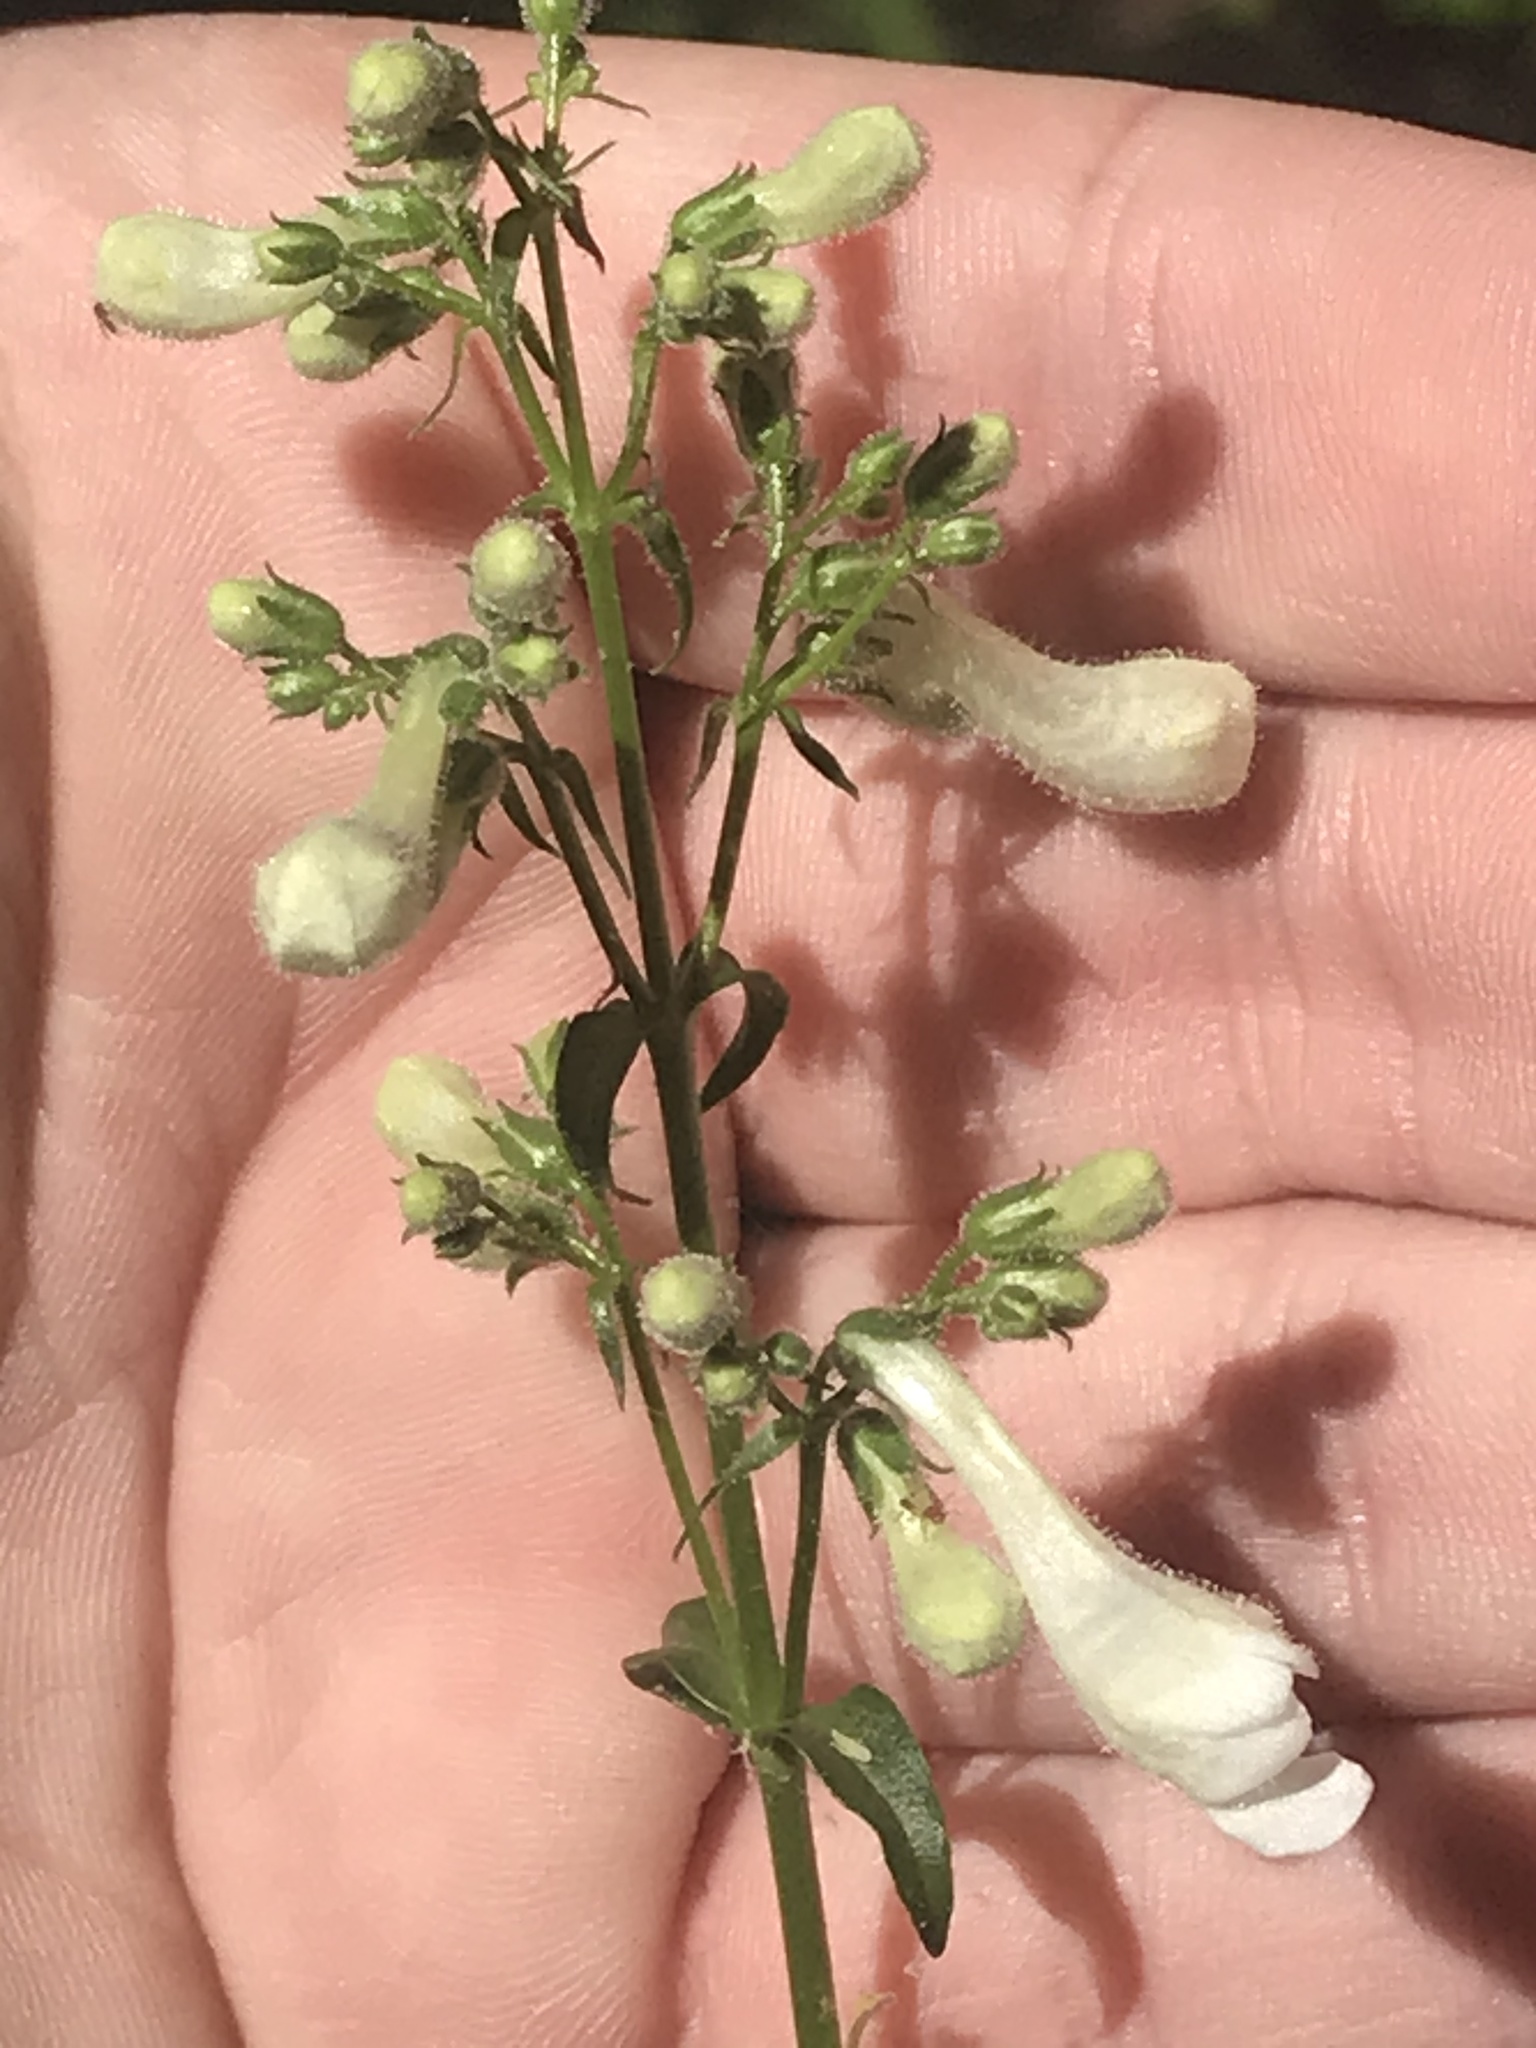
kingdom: Plantae
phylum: Tracheophyta
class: Magnoliopsida
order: Lamiales
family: Plantaginaceae
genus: Penstemon
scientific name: Penstemon digitalis
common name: Foxglove beardtongue
